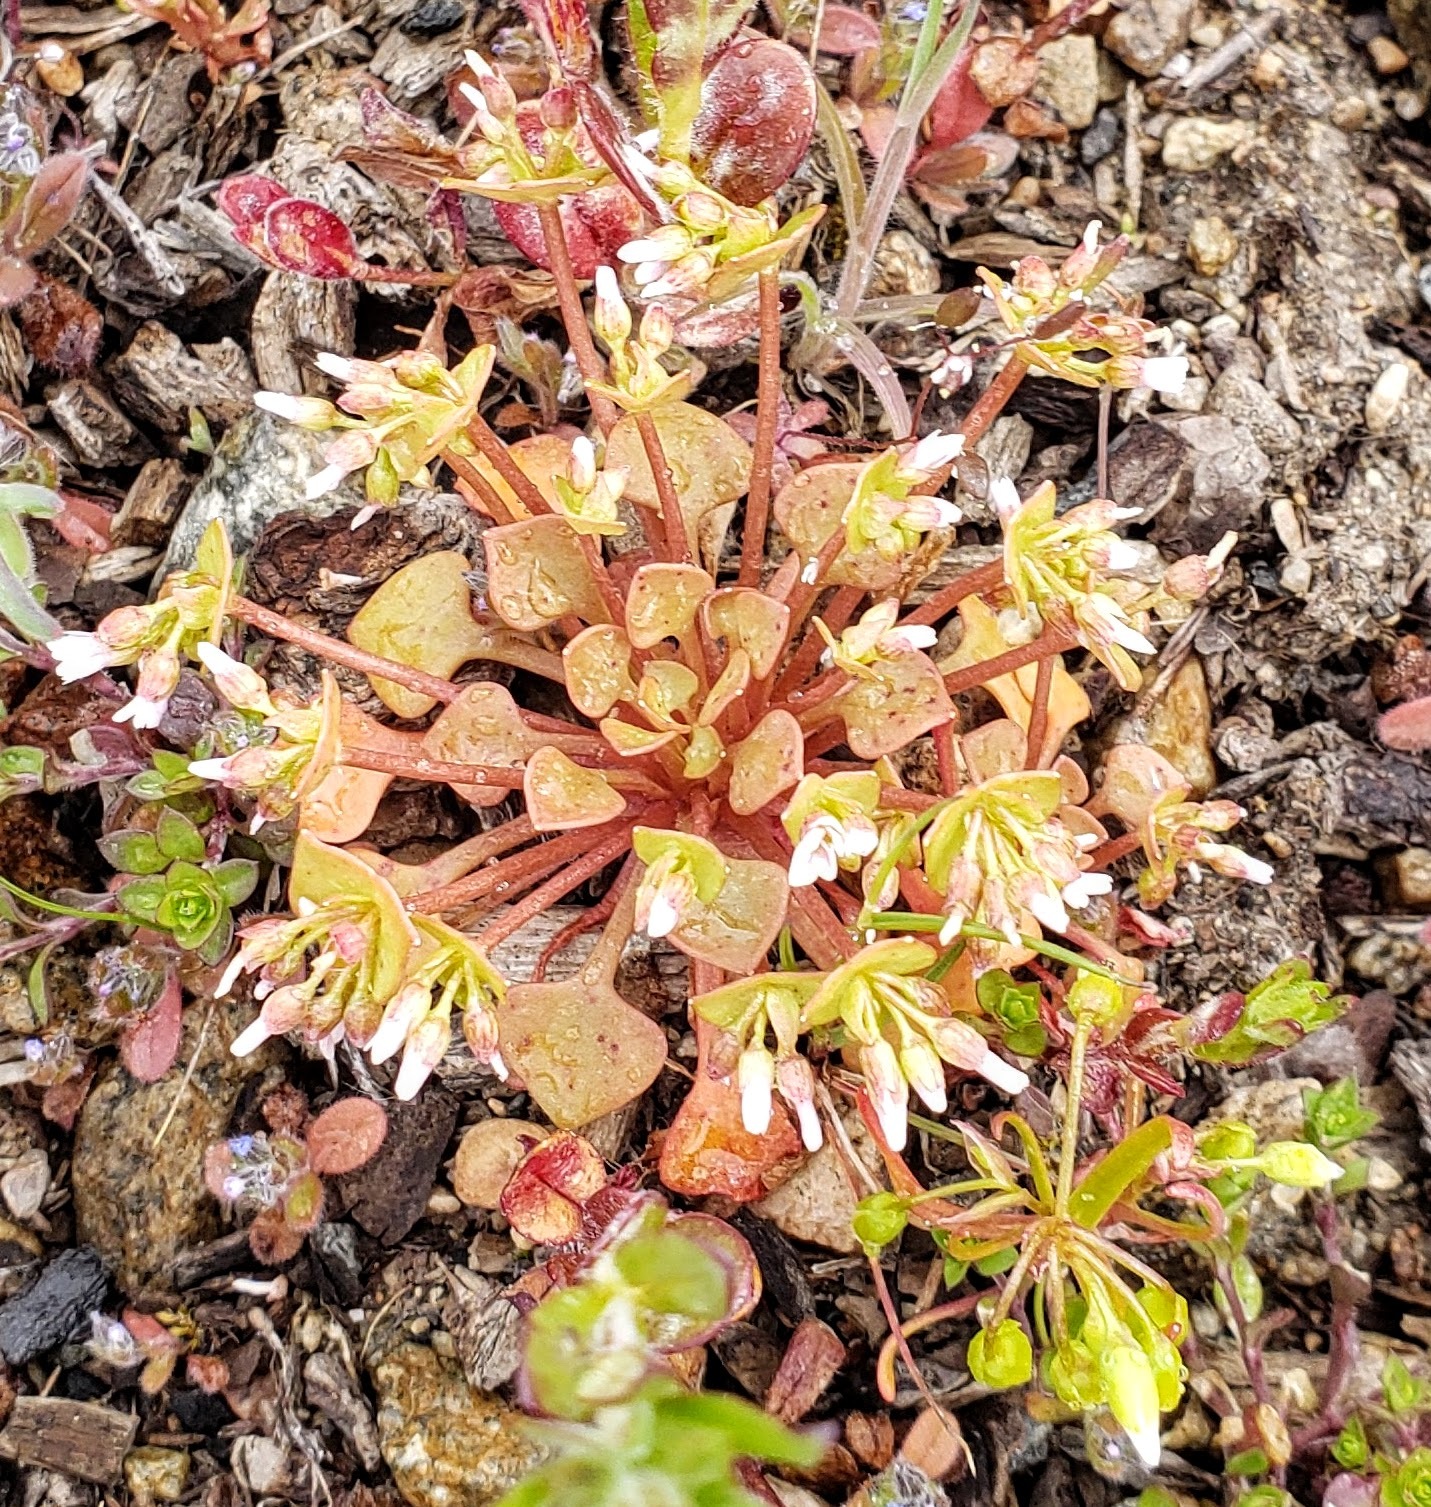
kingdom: Plantae
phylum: Tracheophyta
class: Magnoliopsida
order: Caryophyllales
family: Montiaceae
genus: Claytonia
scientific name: Claytonia rubra
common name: Erubescent miner's-lettuce
